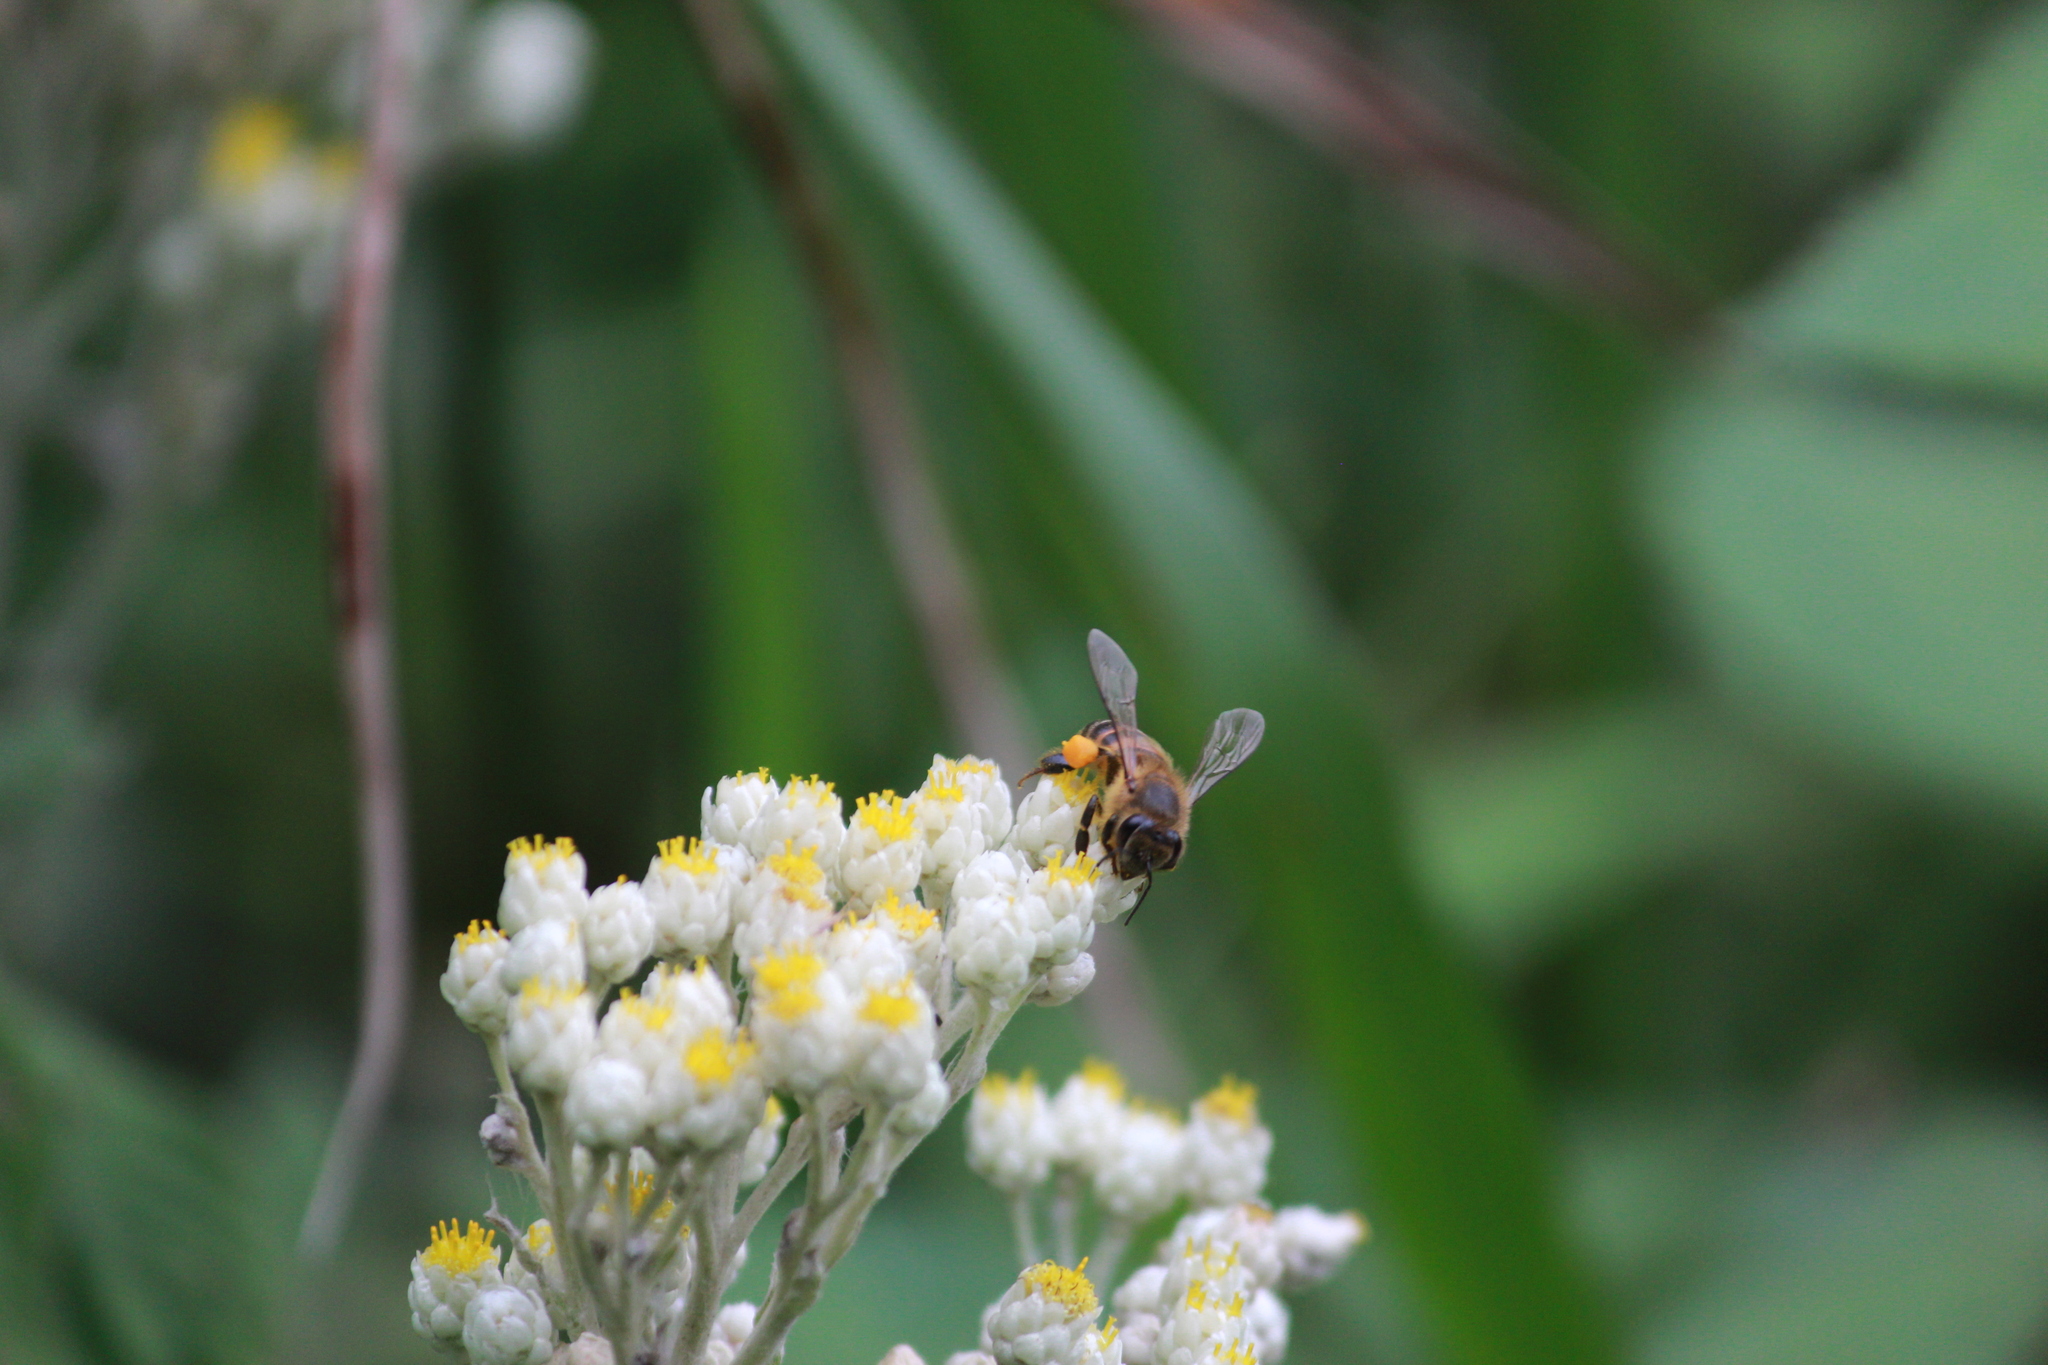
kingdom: Animalia
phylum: Arthropoda
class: Insecta
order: Hymenoptera
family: Apidae
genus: Apis
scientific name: Apis mellifera
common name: Honey bee
